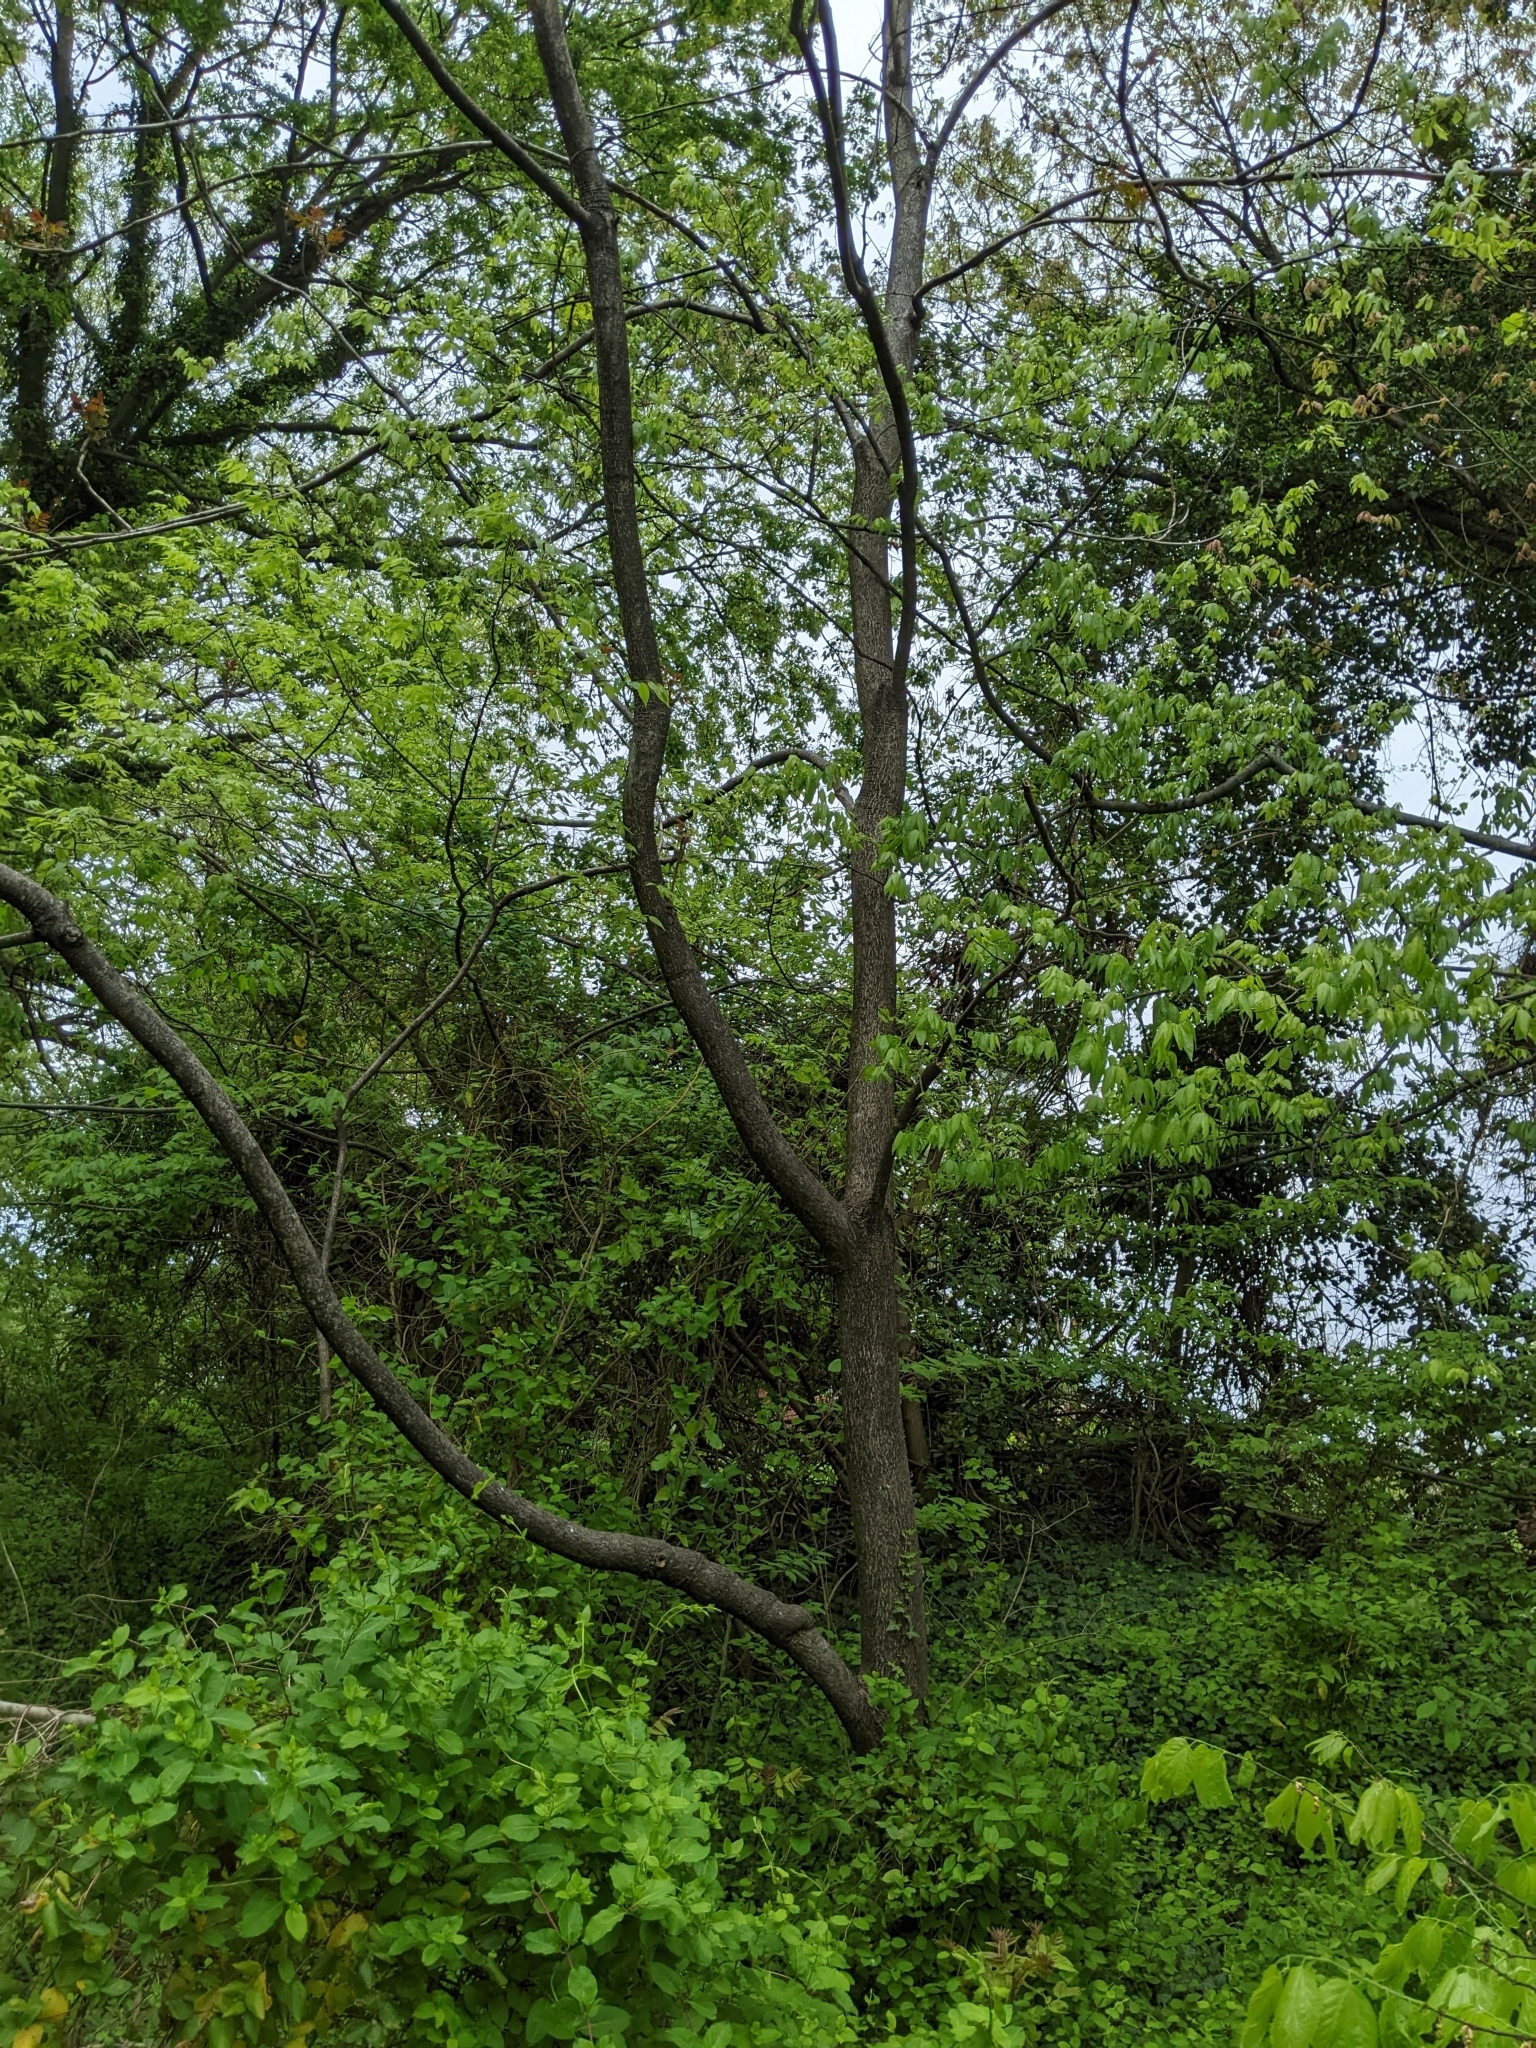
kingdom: Plantae
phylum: Tracheophyta
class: Magnoliopsida
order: Sapindales
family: Simaroubaceae
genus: Ailanthus
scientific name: Ailanthus altissima
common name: Tree-of-heaven
